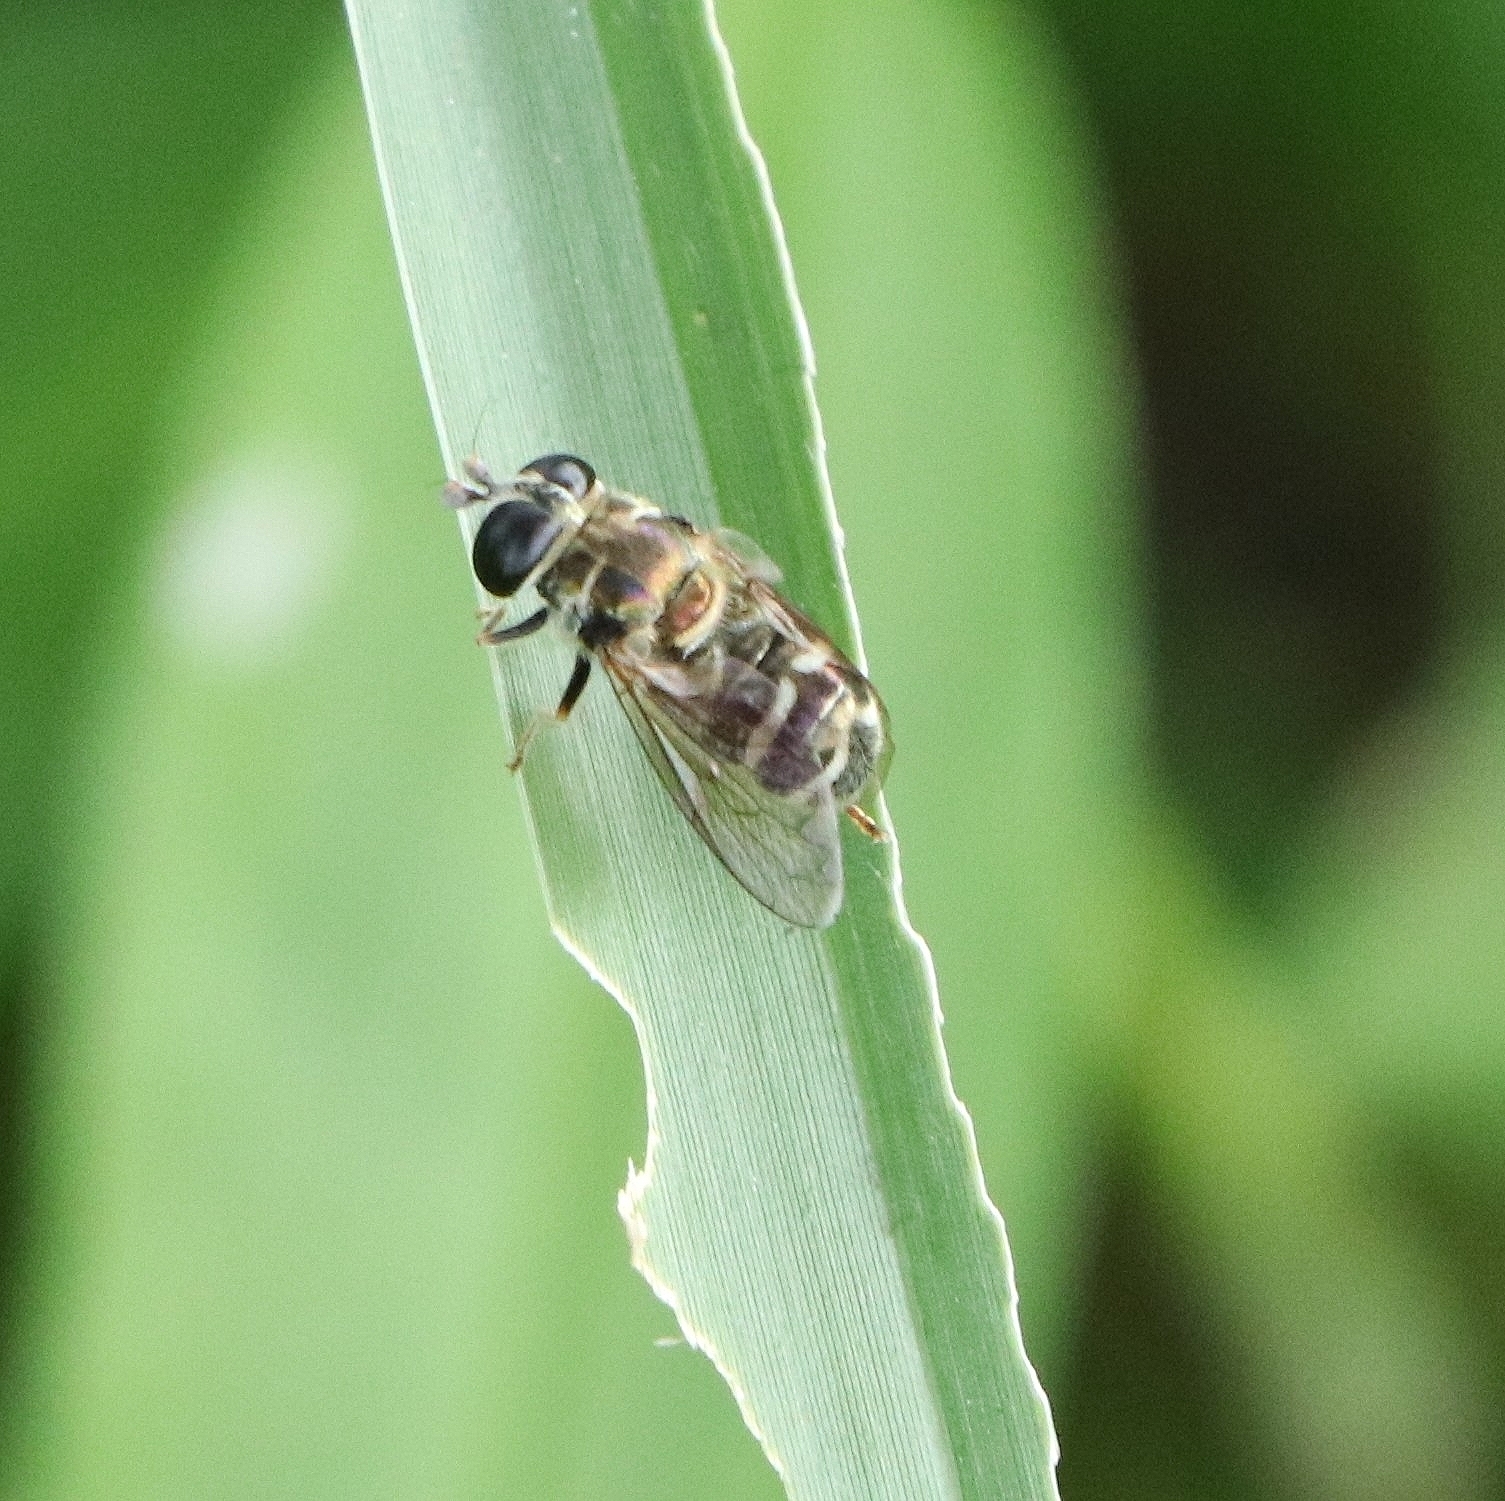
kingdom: Animalia
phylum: Arthropoda
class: Insecta
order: Diptera
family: Syrphidae
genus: Eumerus
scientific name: Eumerus figurans
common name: Ginger maggot
